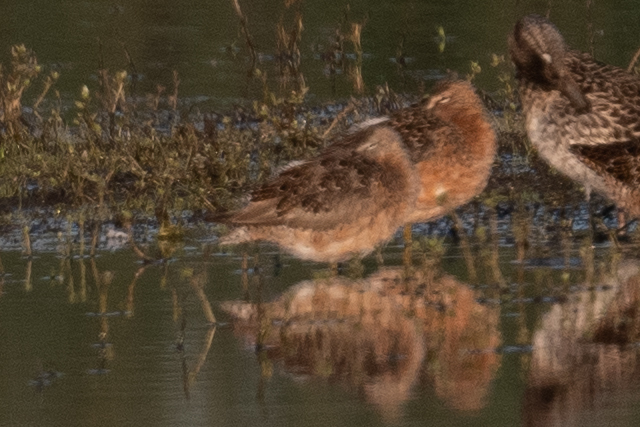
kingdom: Animalia
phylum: Chordata
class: Aves
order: Charadriiformes
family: Scolopacidae
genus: Limnodromus
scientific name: Limnodromus scolopaceus
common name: Long-billed dowitcher
